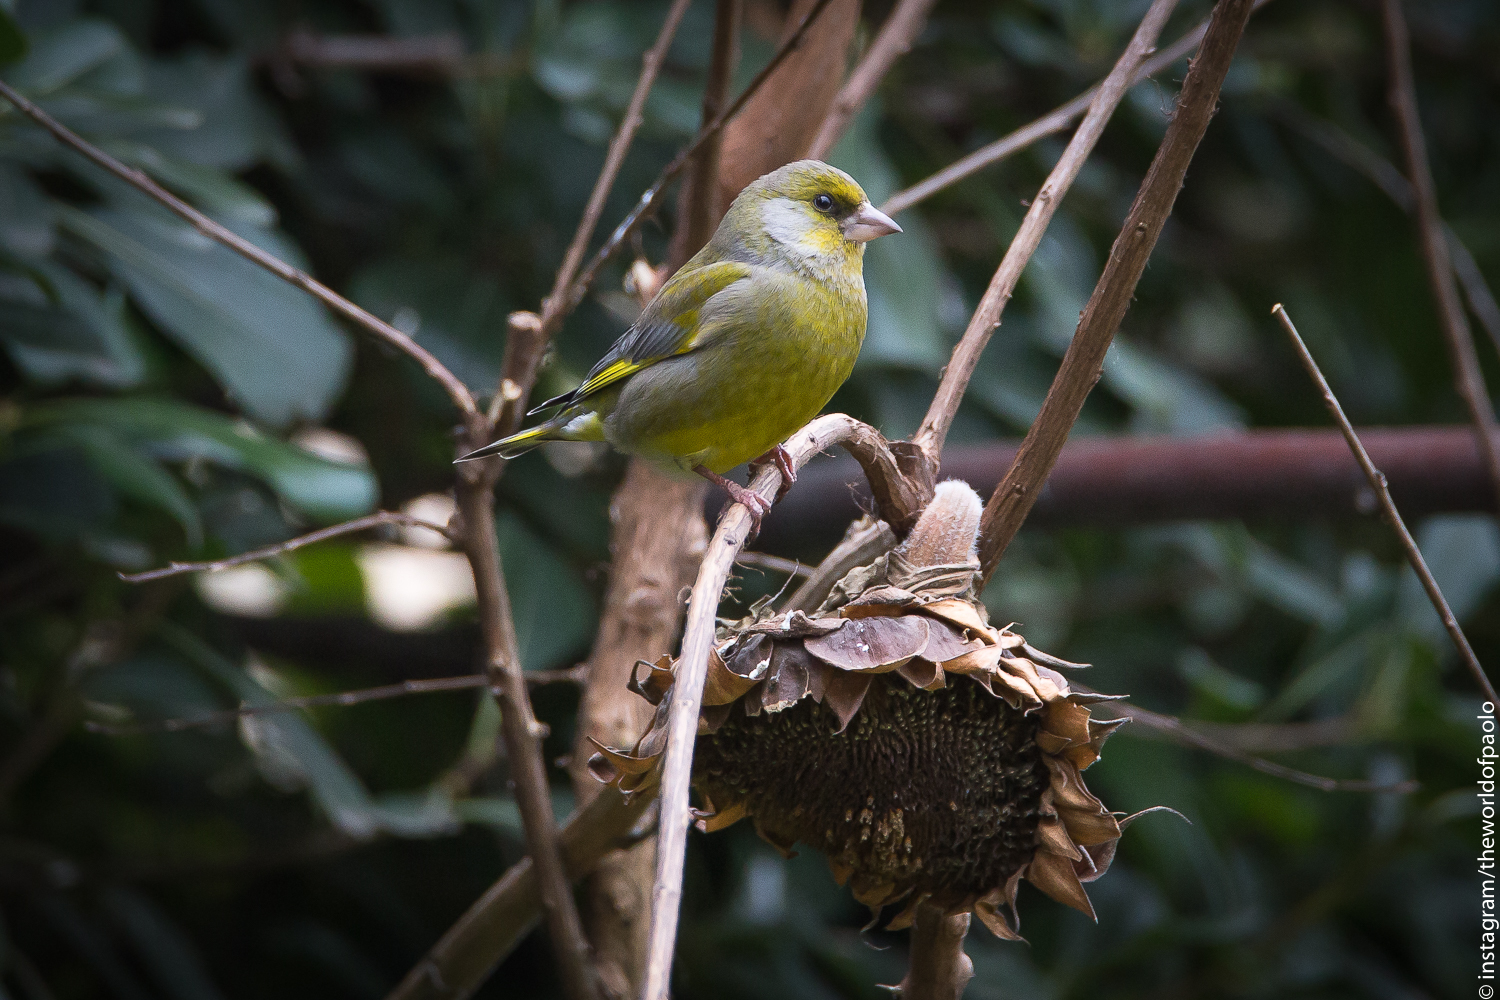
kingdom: Plantae
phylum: Tracheophyta
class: Liliopsida
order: Poales
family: Poaceae
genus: Chloris
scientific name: Chloris chloris
